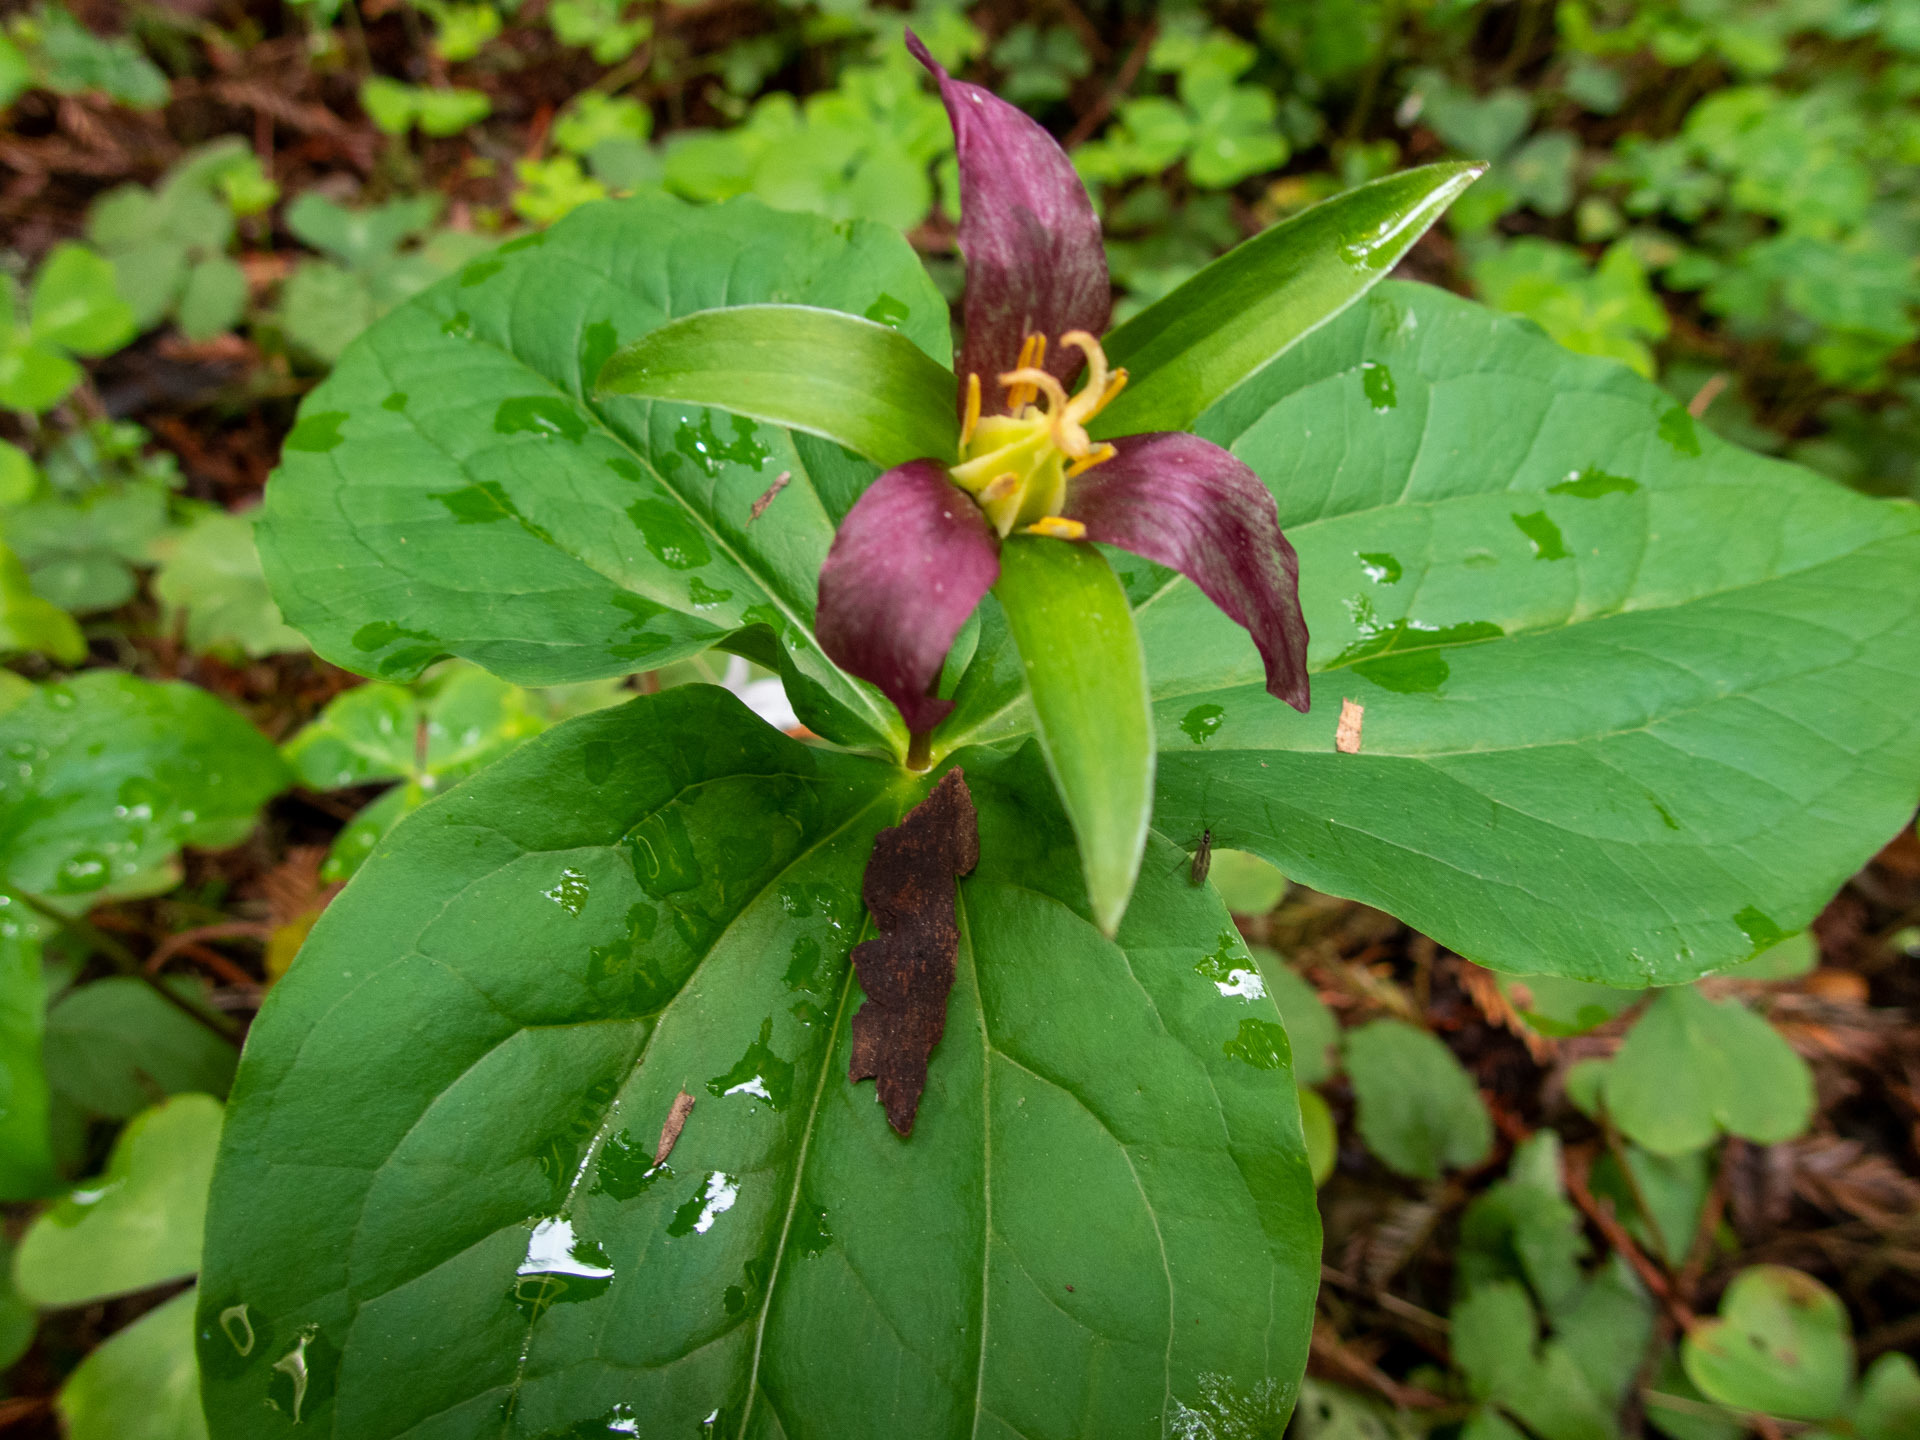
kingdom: Plantae
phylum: Tracheophyta
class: Liliopsida
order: Liliales
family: Melanthiaceae
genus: Trillium
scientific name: Trillium ovatum
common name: Pacific trillium
